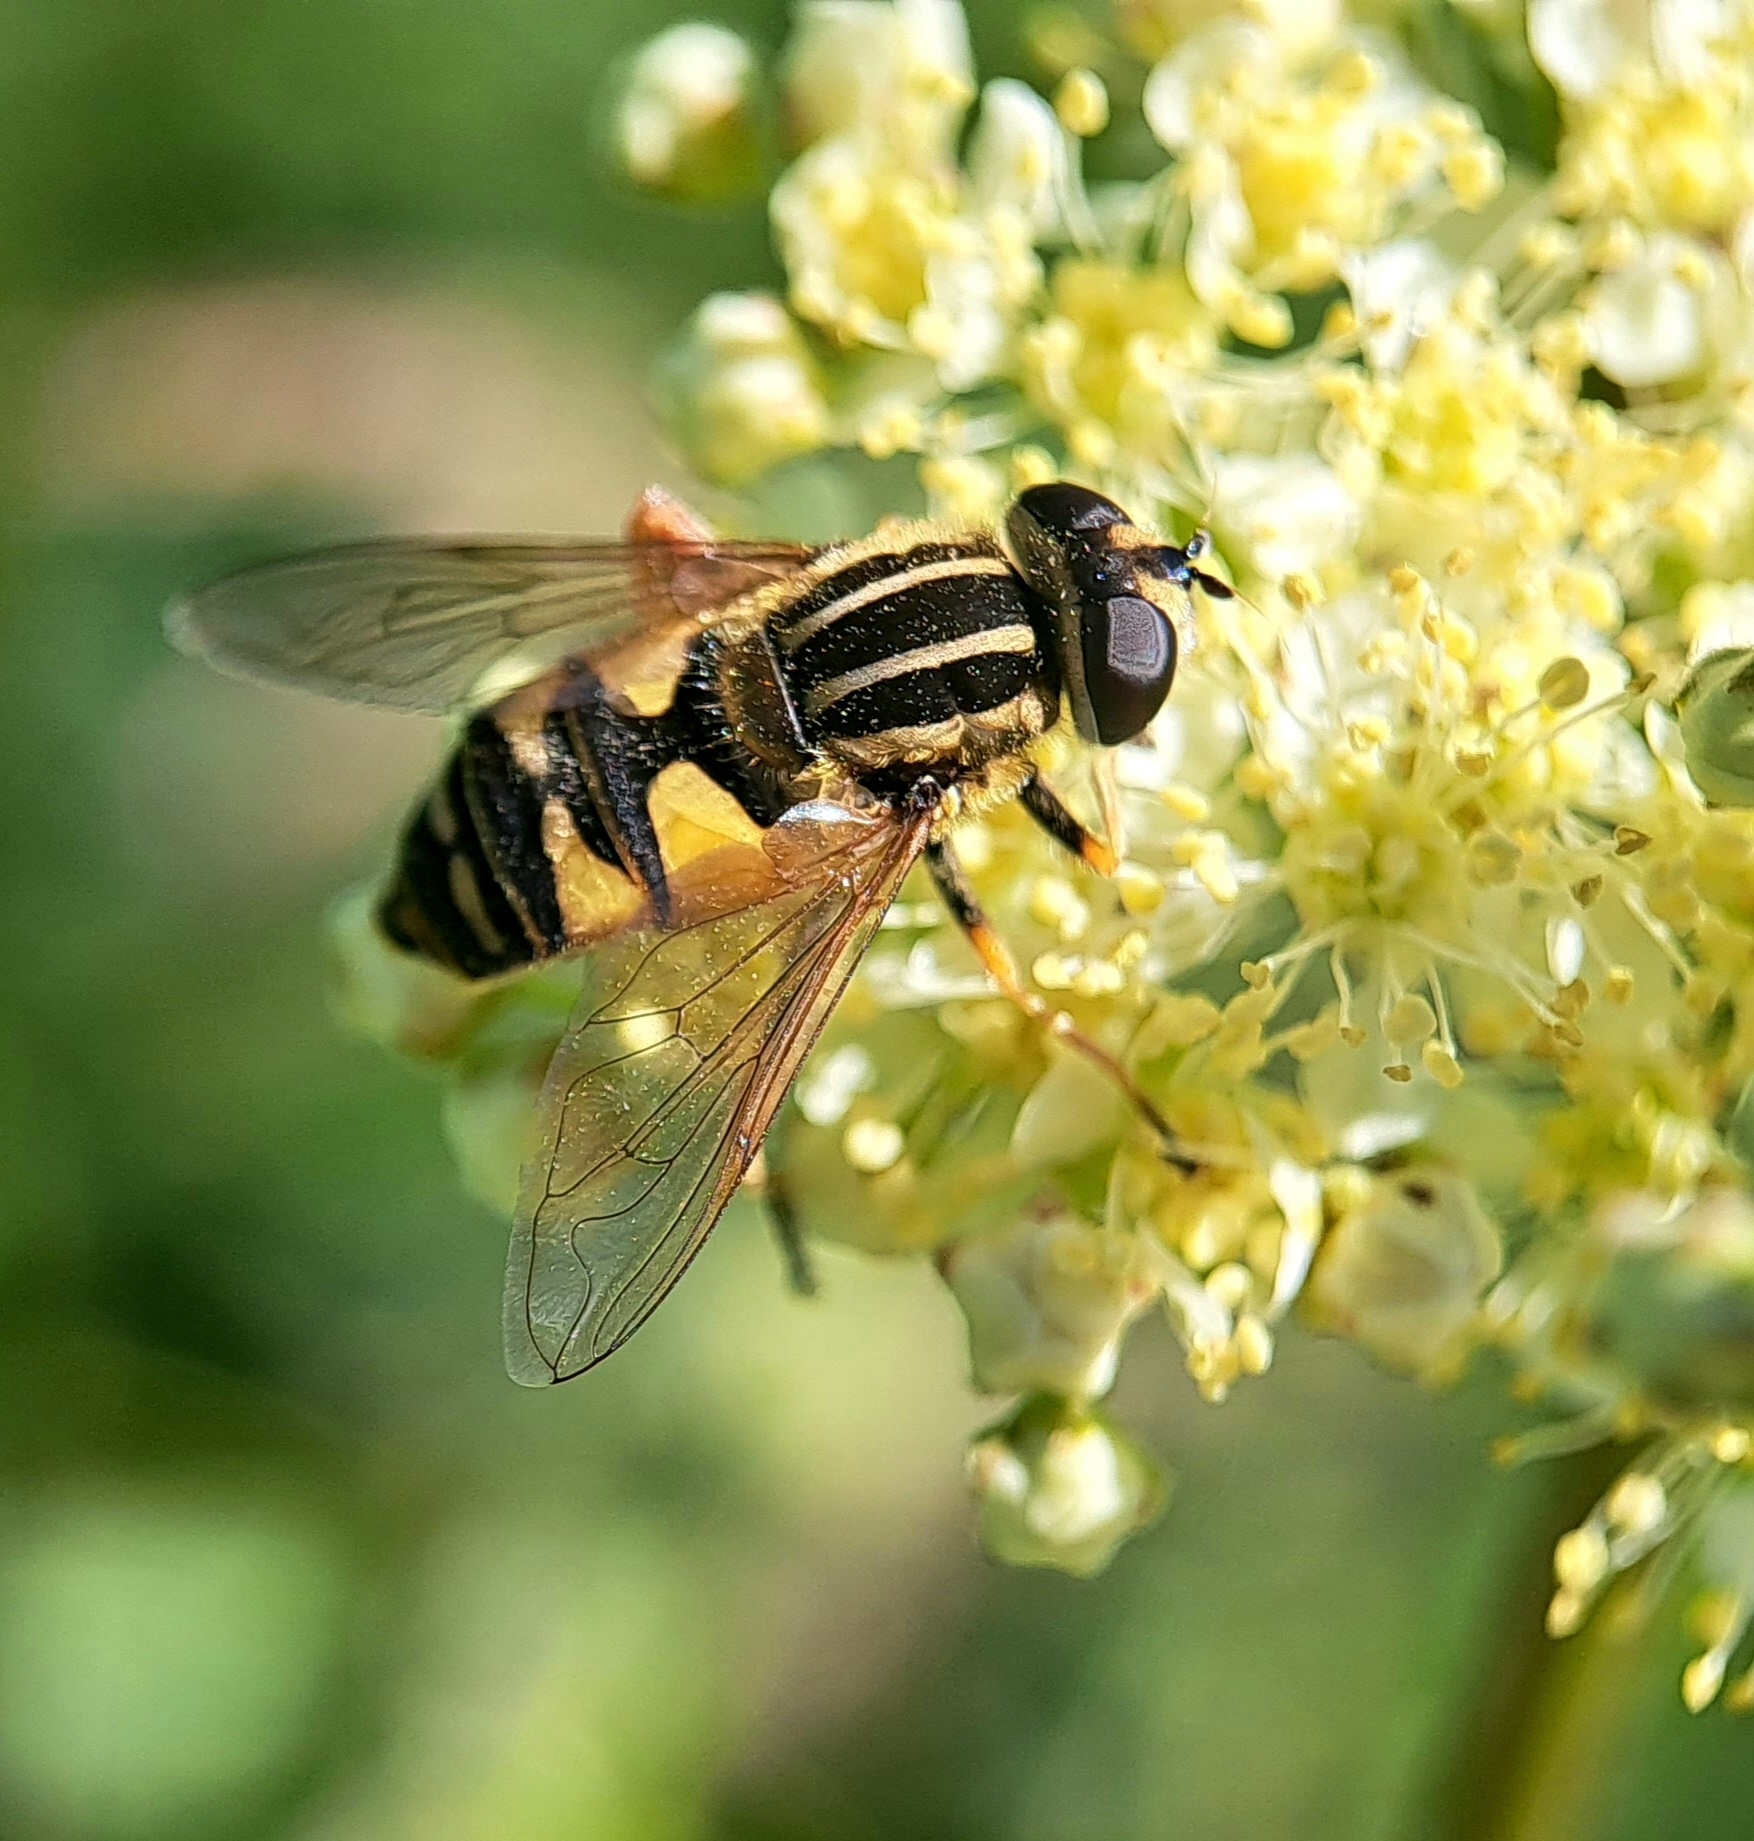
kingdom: Animalia
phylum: Arthropoda
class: Insecta
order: Diptera
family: Syrphidae
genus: Helophilus
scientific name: Helophilus pendulus
